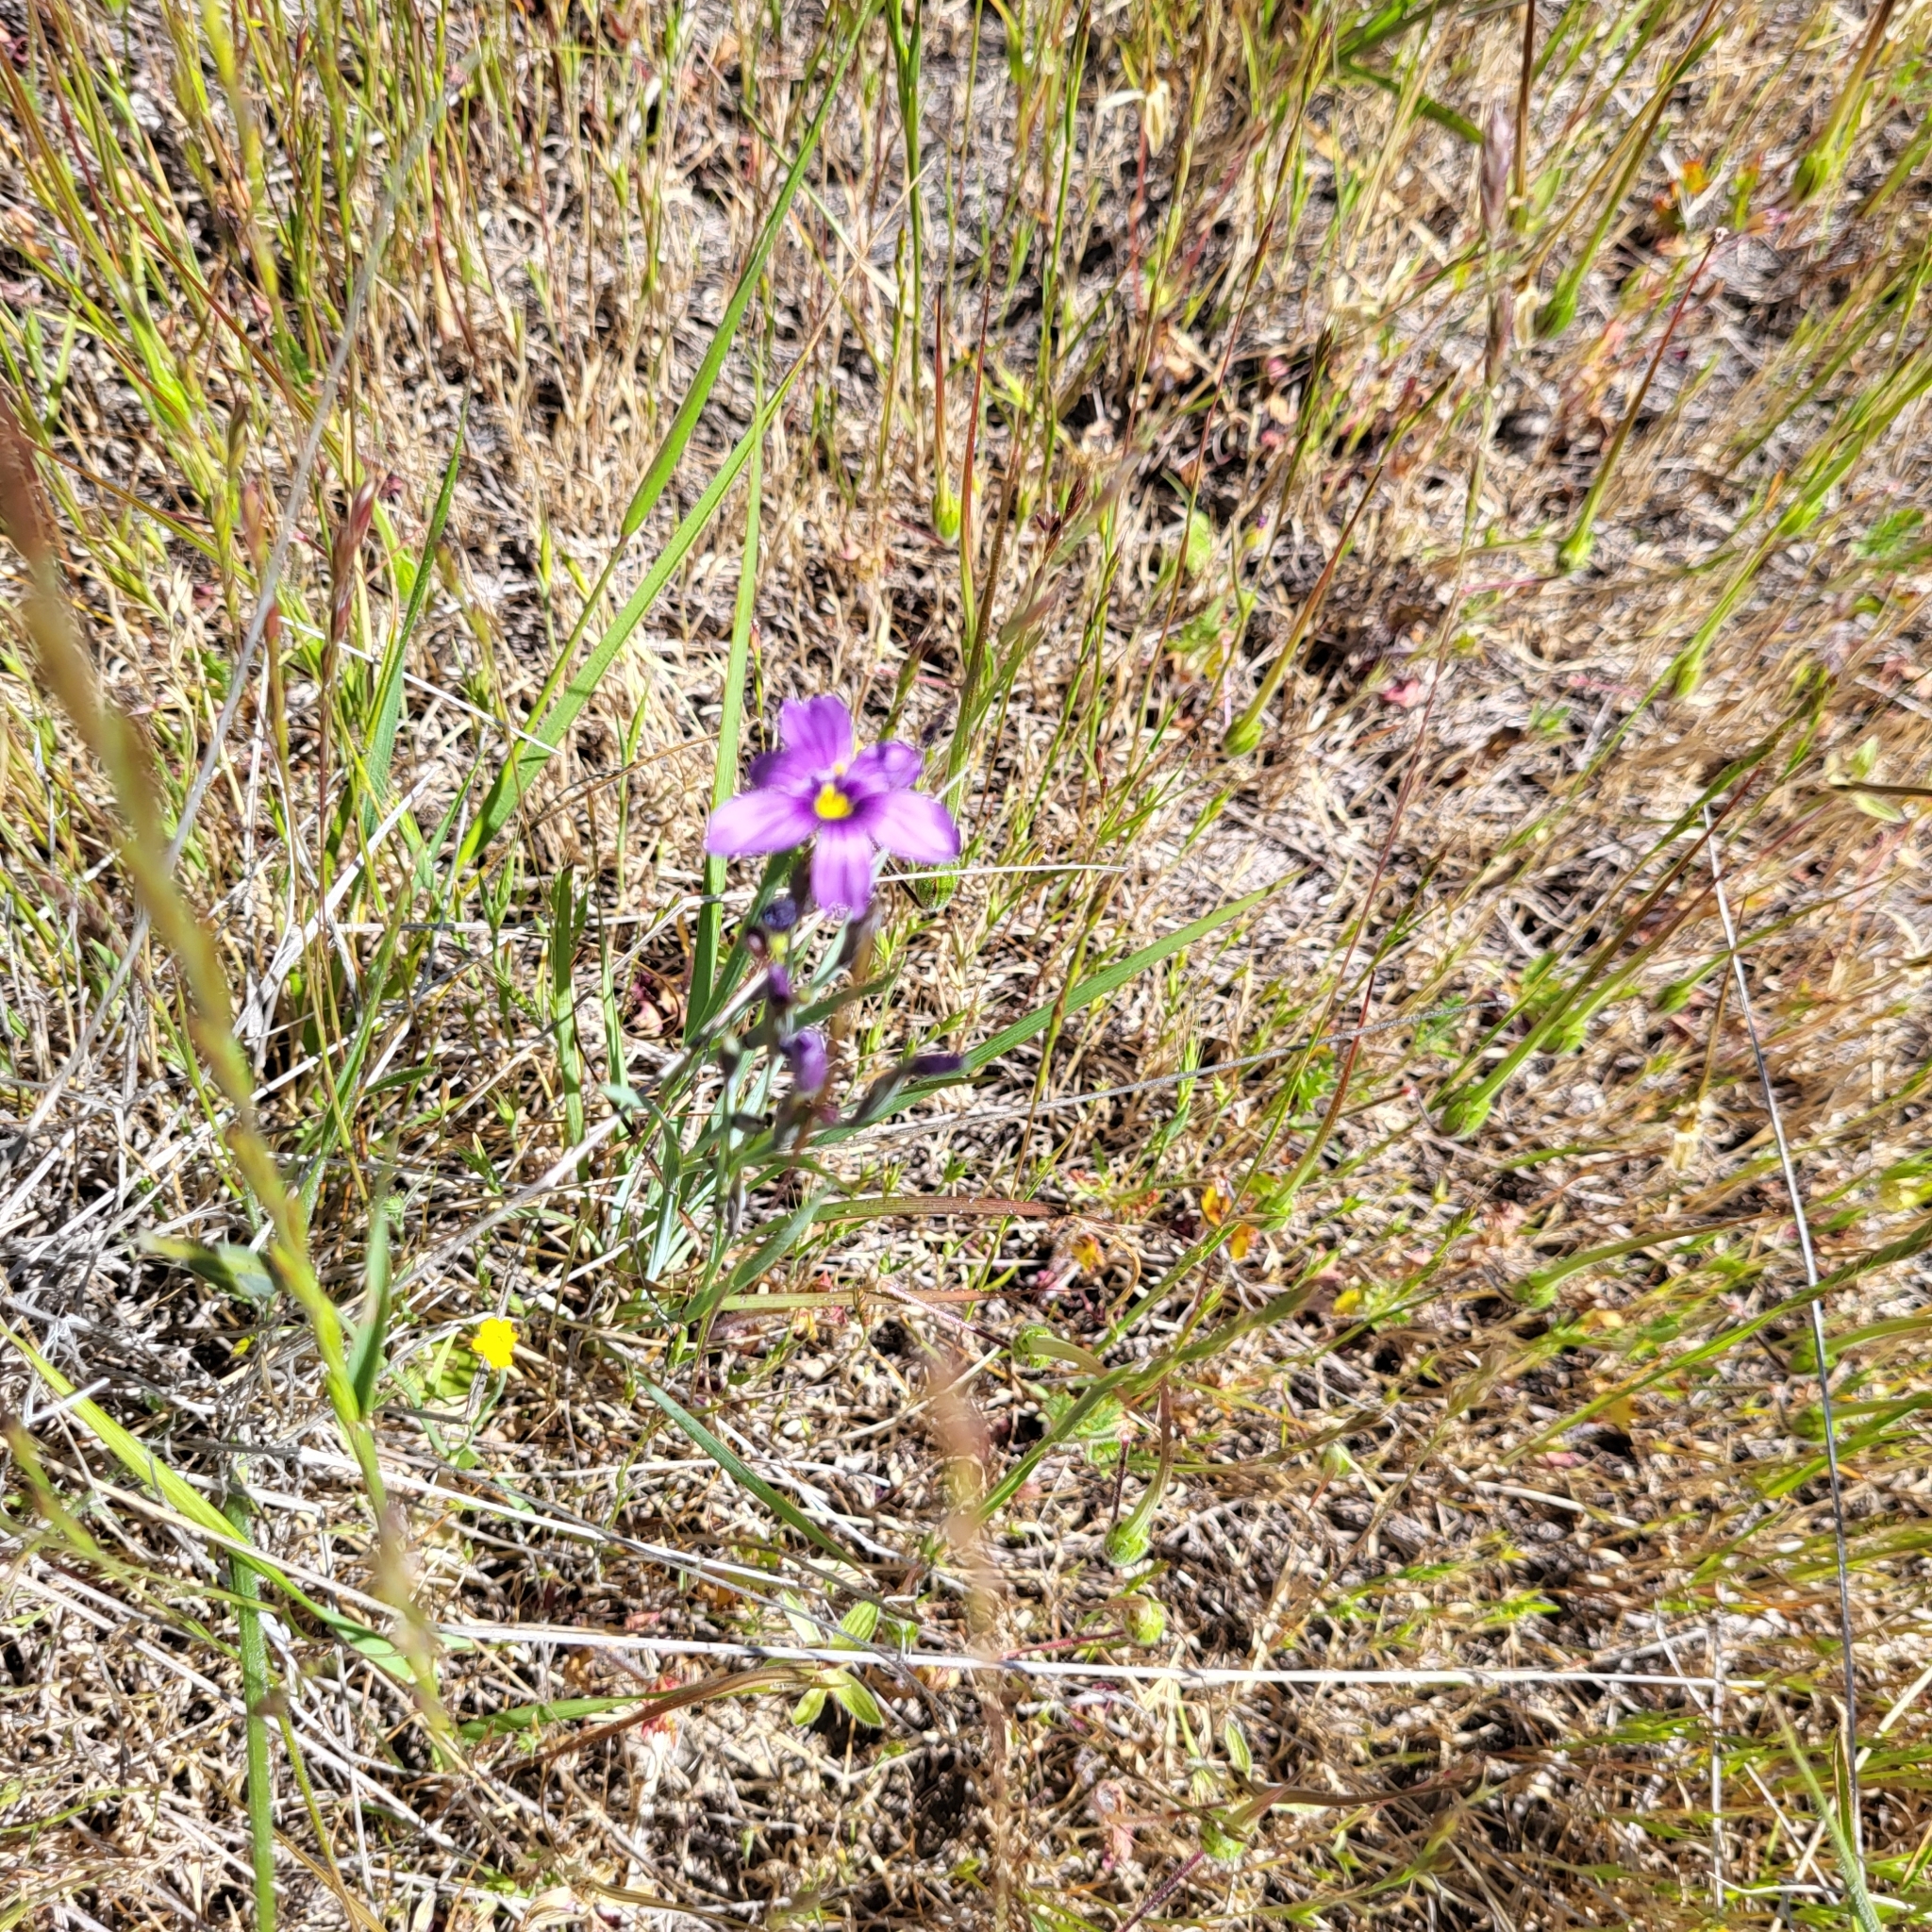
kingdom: Plantae
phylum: Tracheophyta
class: Liliopsida
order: Asparagales
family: Iridaceae
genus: Sisyrinchium
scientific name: Sisyrinchium bellum
